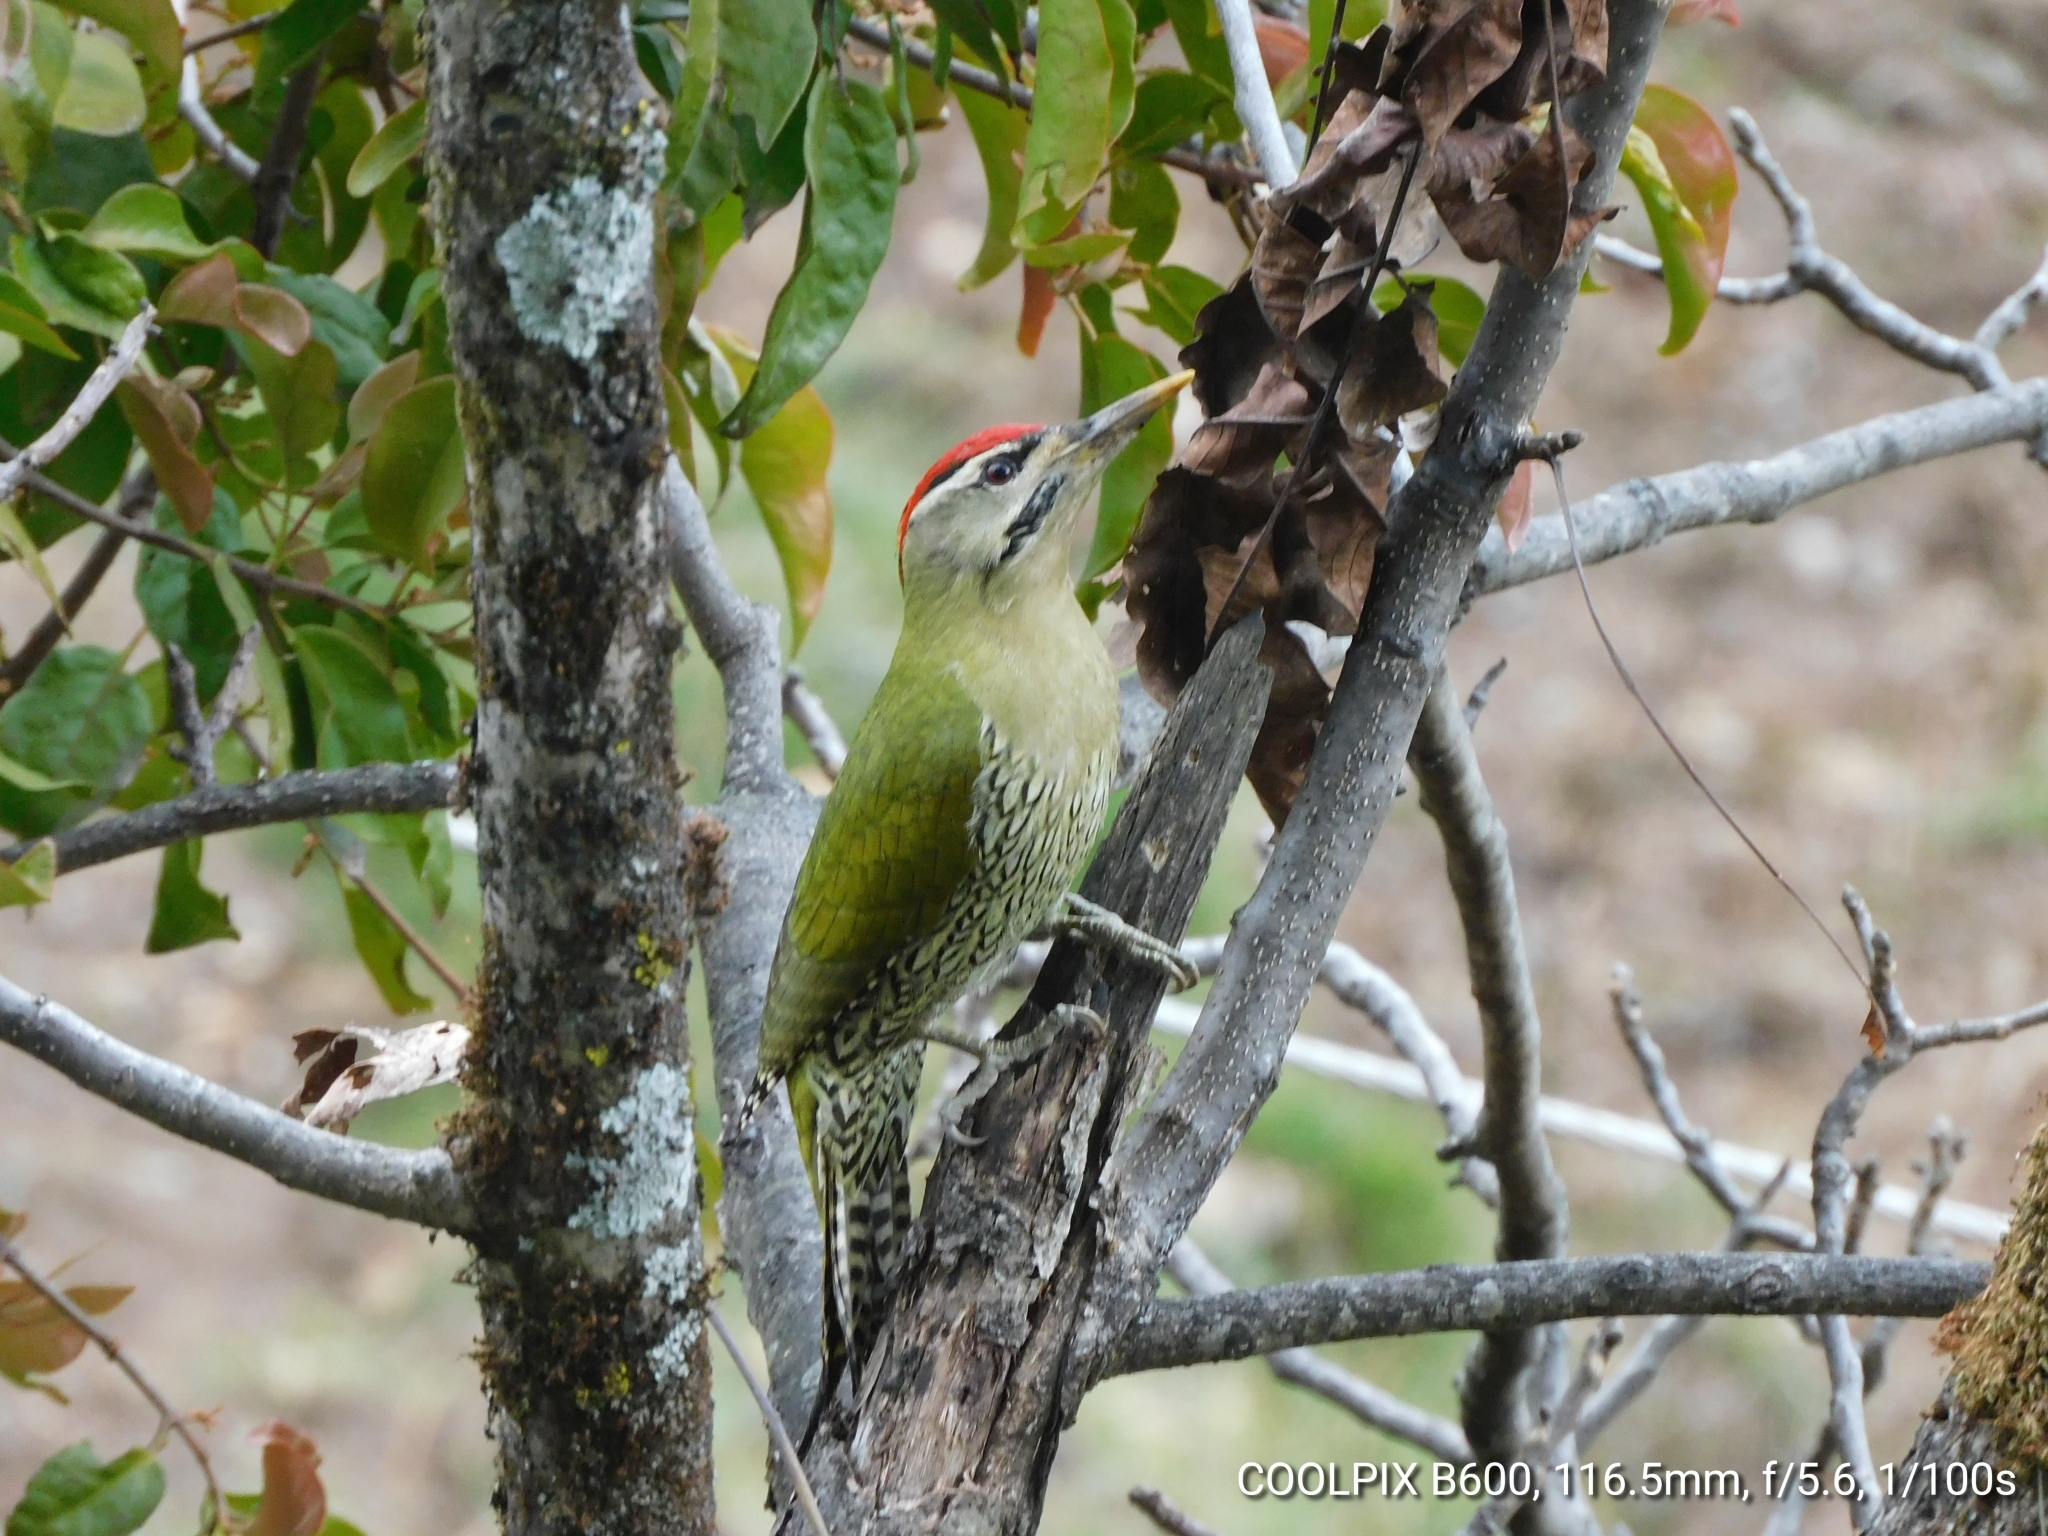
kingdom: Animalia
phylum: Chordata
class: Aves
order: Piciformes
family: Picidae
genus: Picus
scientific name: Picus squamatus
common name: Scaly-bellied woodpecker
